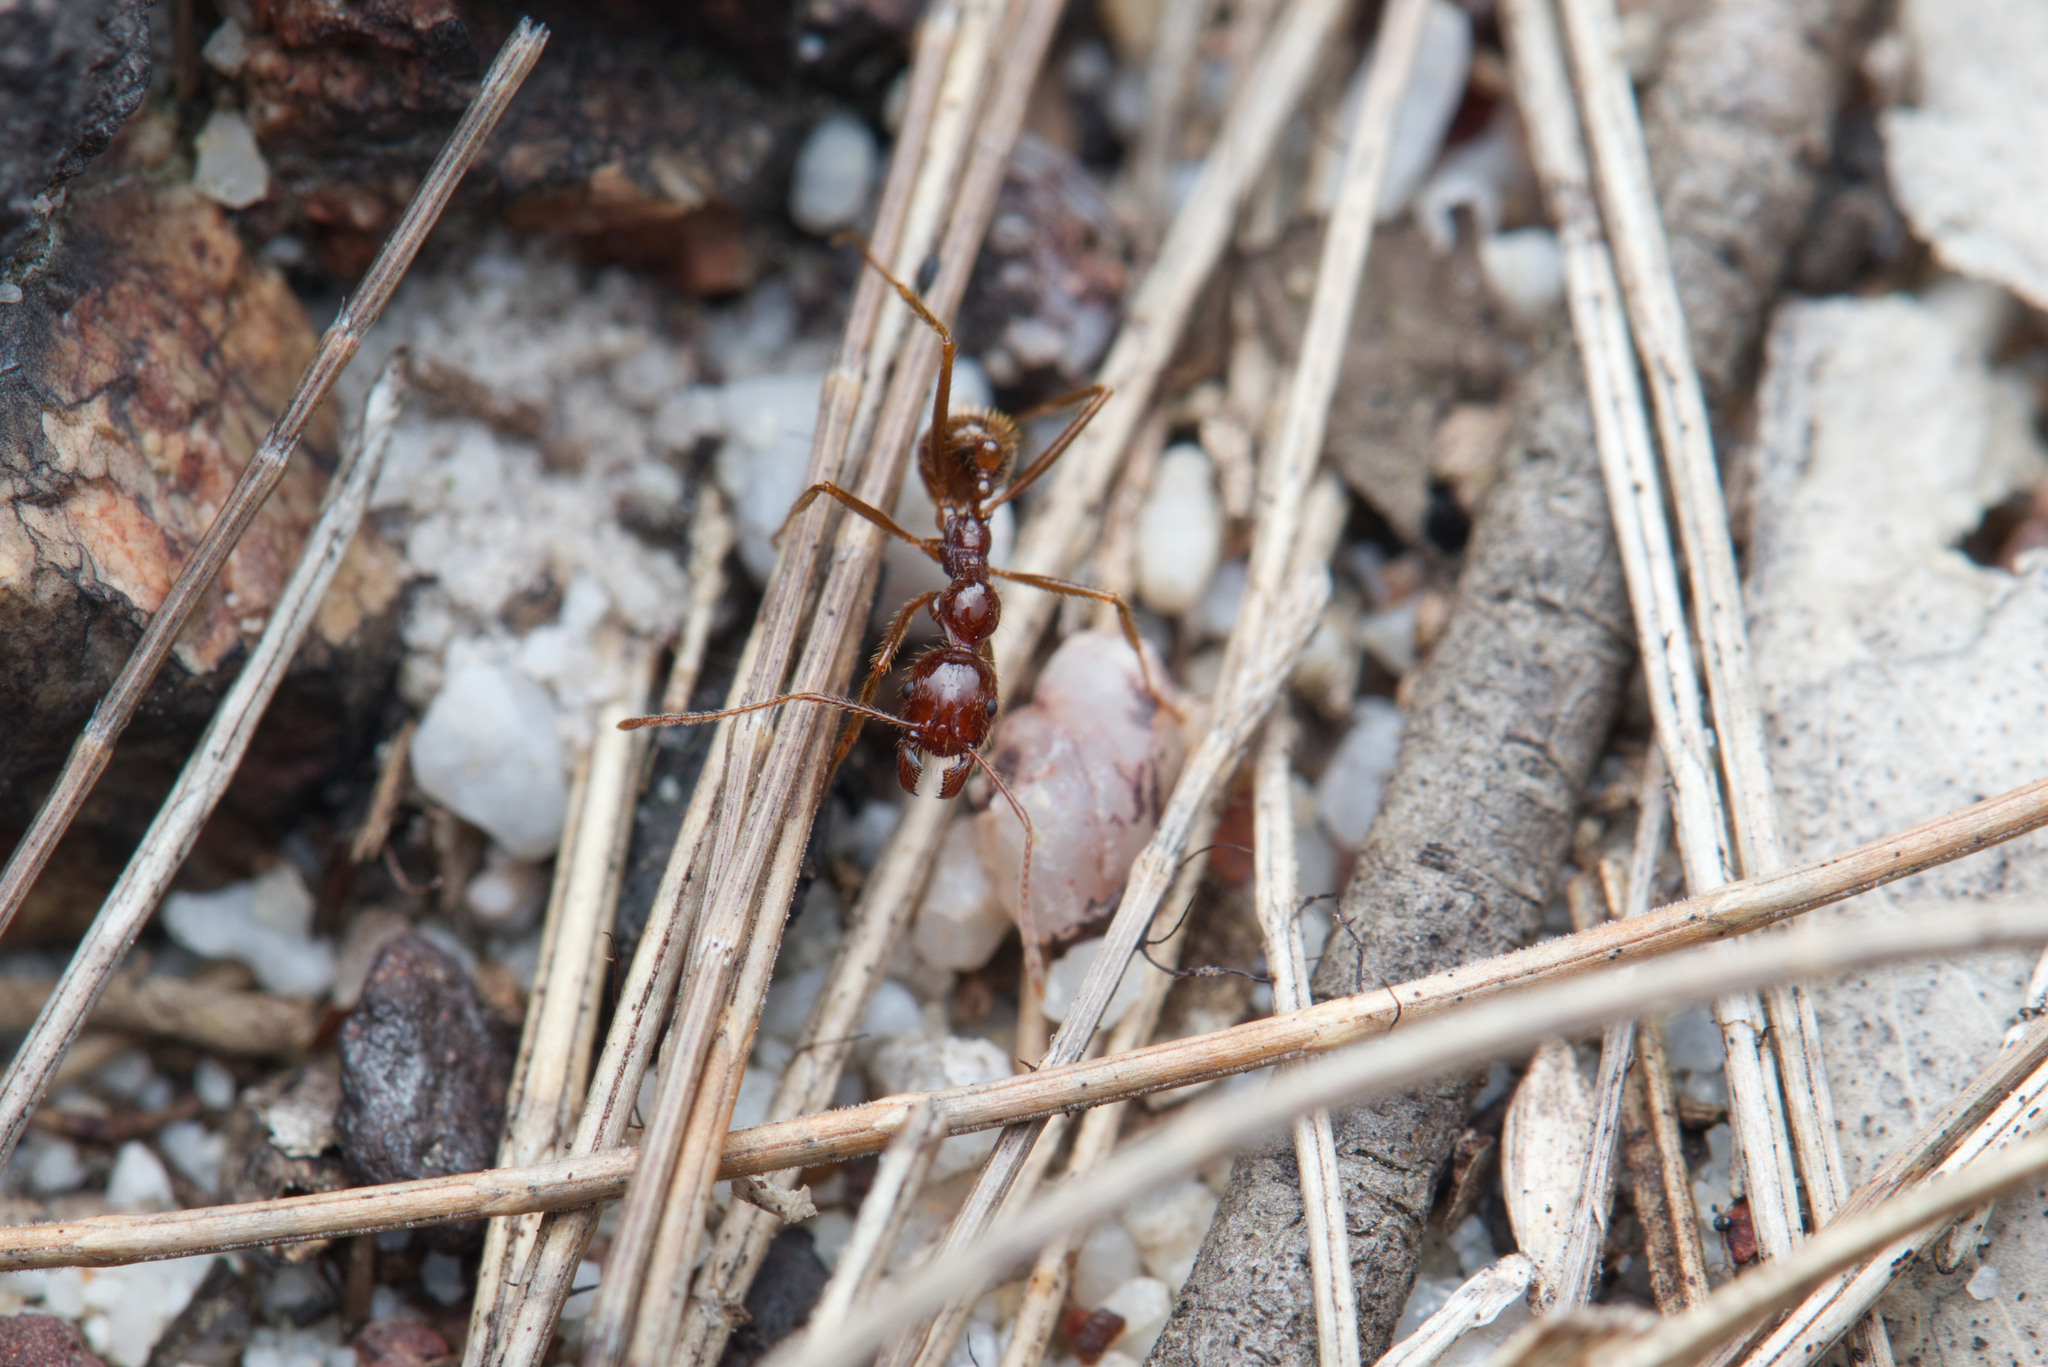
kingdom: Animalia
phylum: Arthropoda
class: Insecta
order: Hymenoptera
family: Formicidae
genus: Aphaenogaster
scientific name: Aphaenogaster longiceps
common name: Funnel ant
